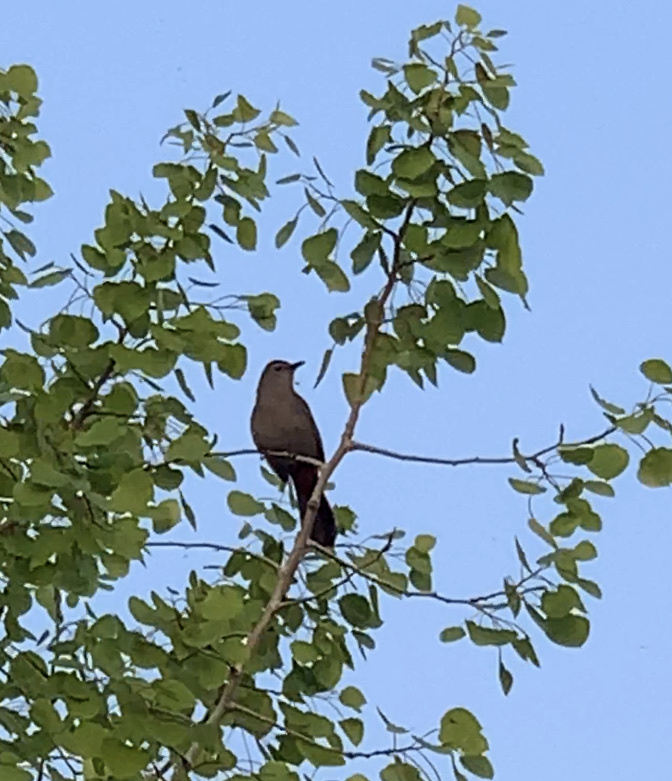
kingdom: Animalia
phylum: Chordata
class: Aves
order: Passeriformes
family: Mimidae
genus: Dumetella
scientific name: Dumetella carolinensis
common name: Gray catbird
